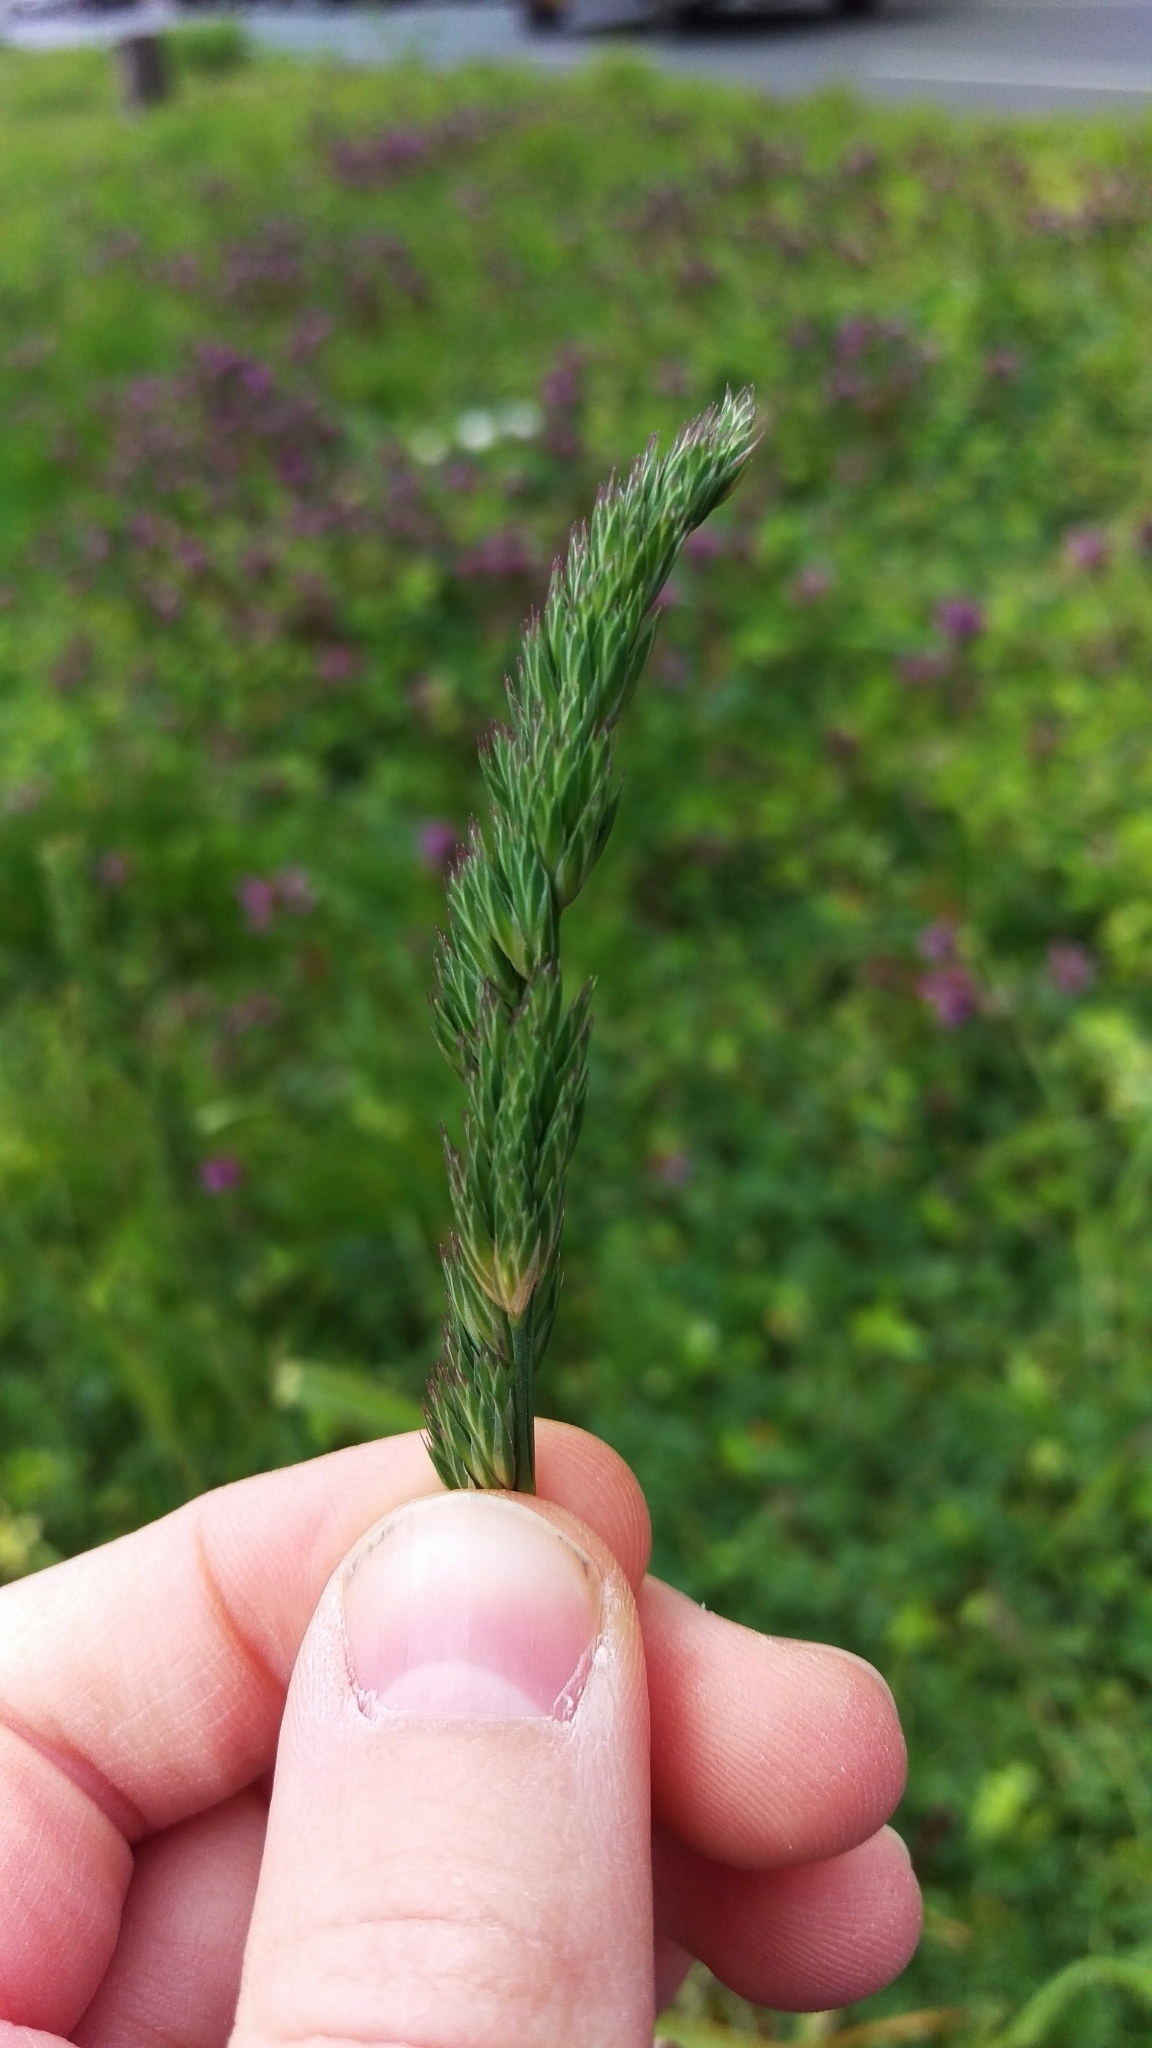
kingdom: Plantae
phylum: Tracheophyta
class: Liliopsida
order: Poales
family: Poaceae
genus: Dactylis
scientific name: Dactylis glomerata
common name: Orchardgrass
